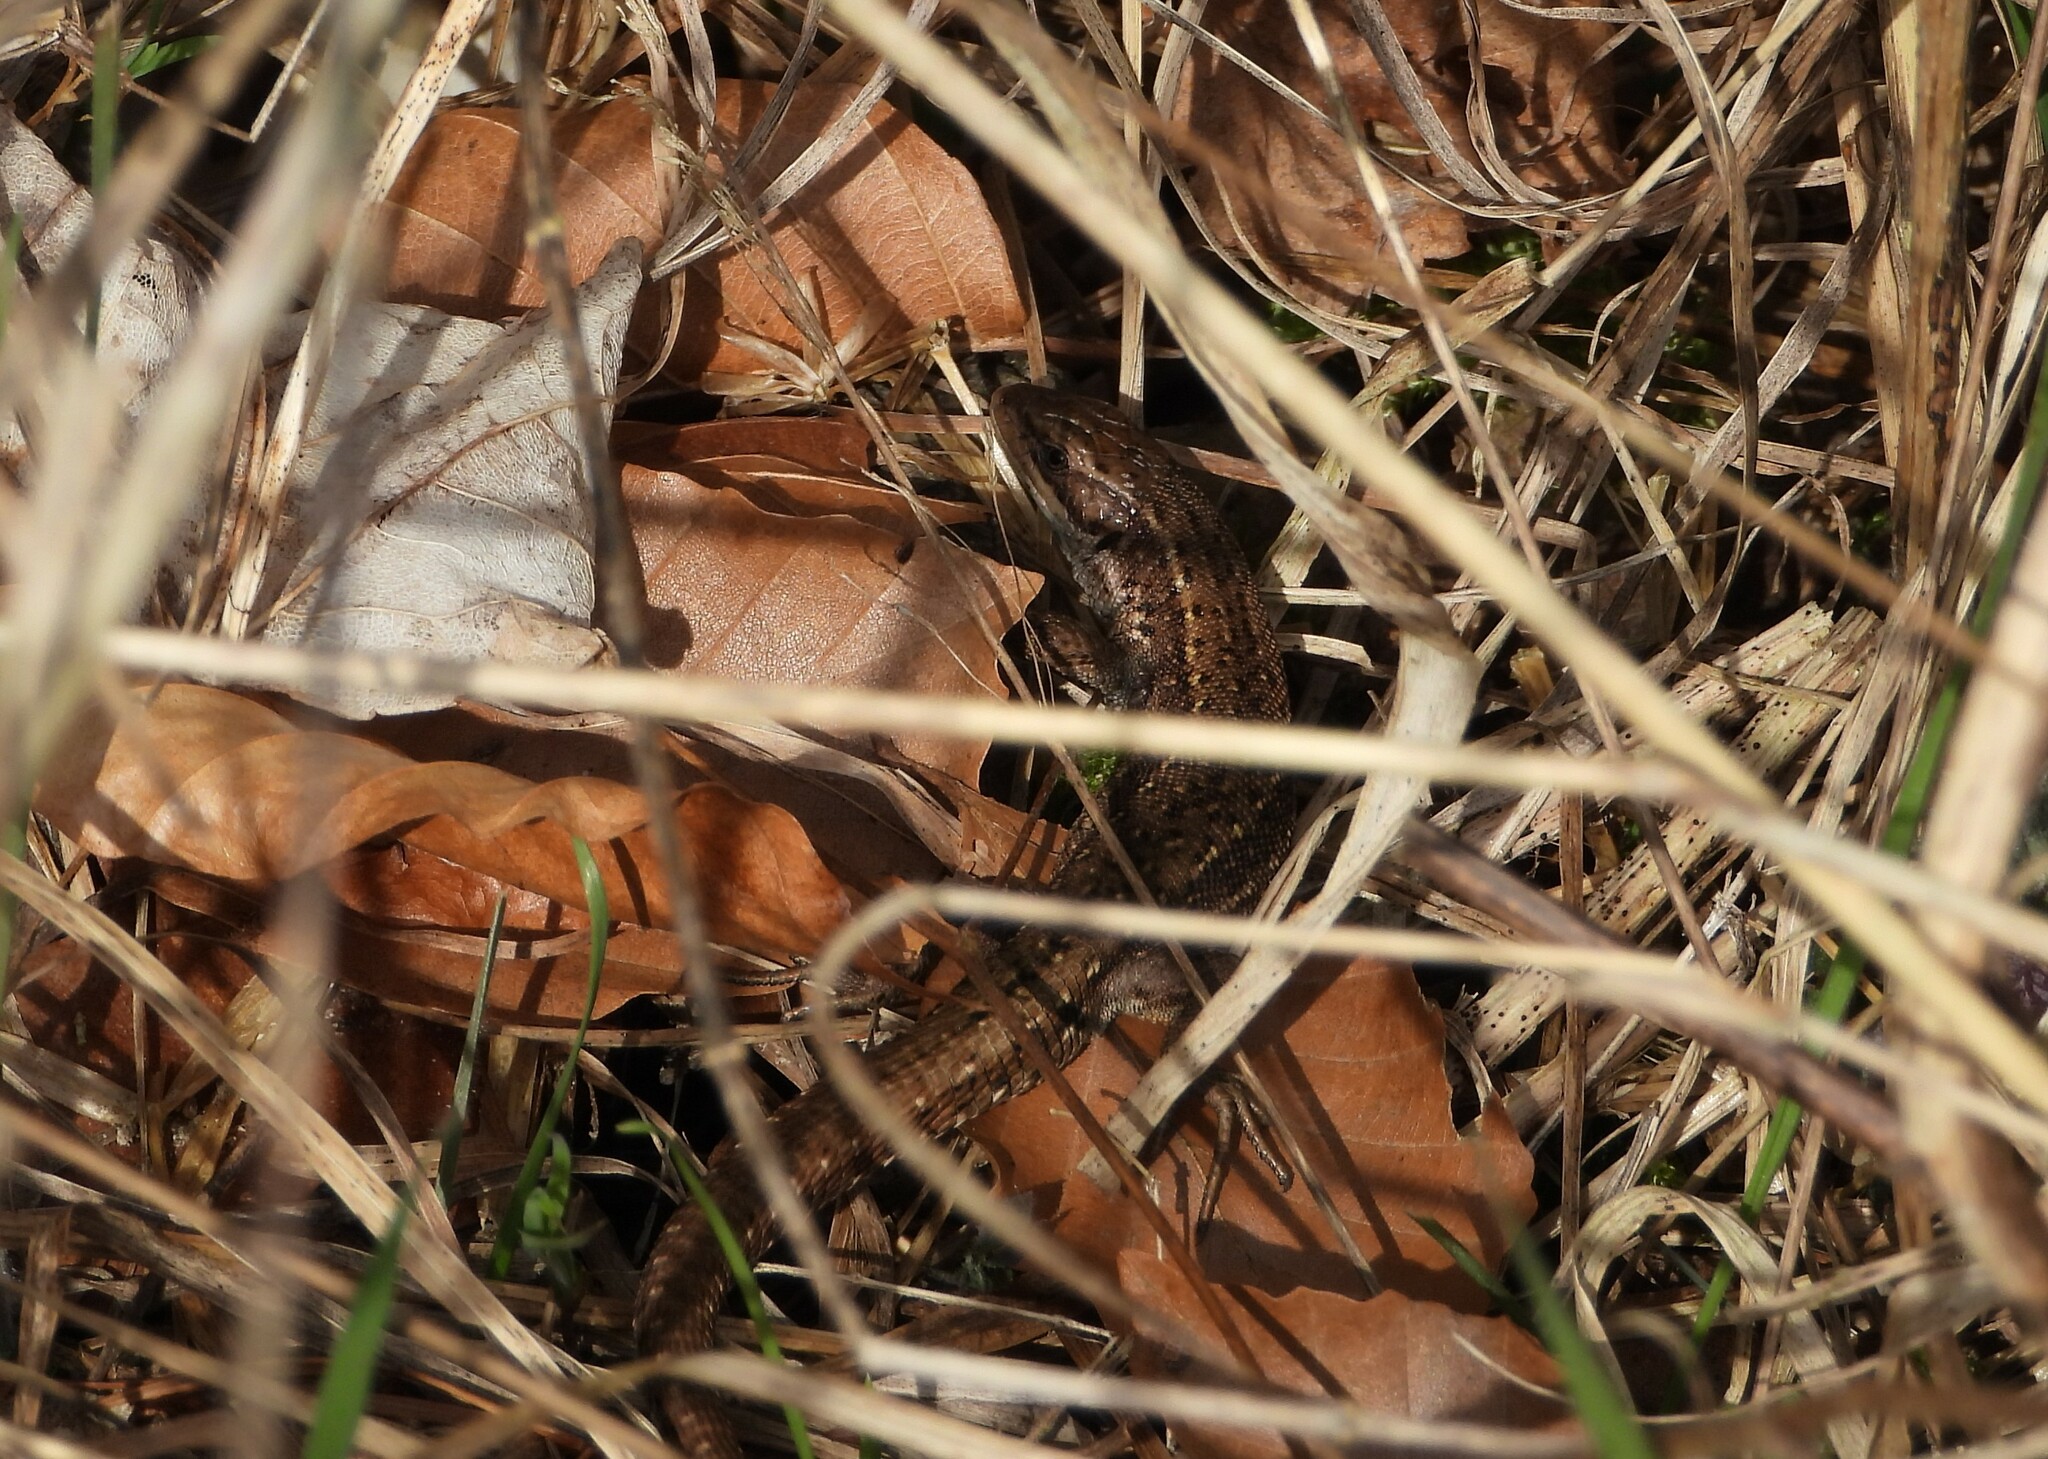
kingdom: Animalia
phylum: Chordata
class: Squamata
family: Lacertidae
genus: Zootoca
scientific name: Zootoca vivipara
